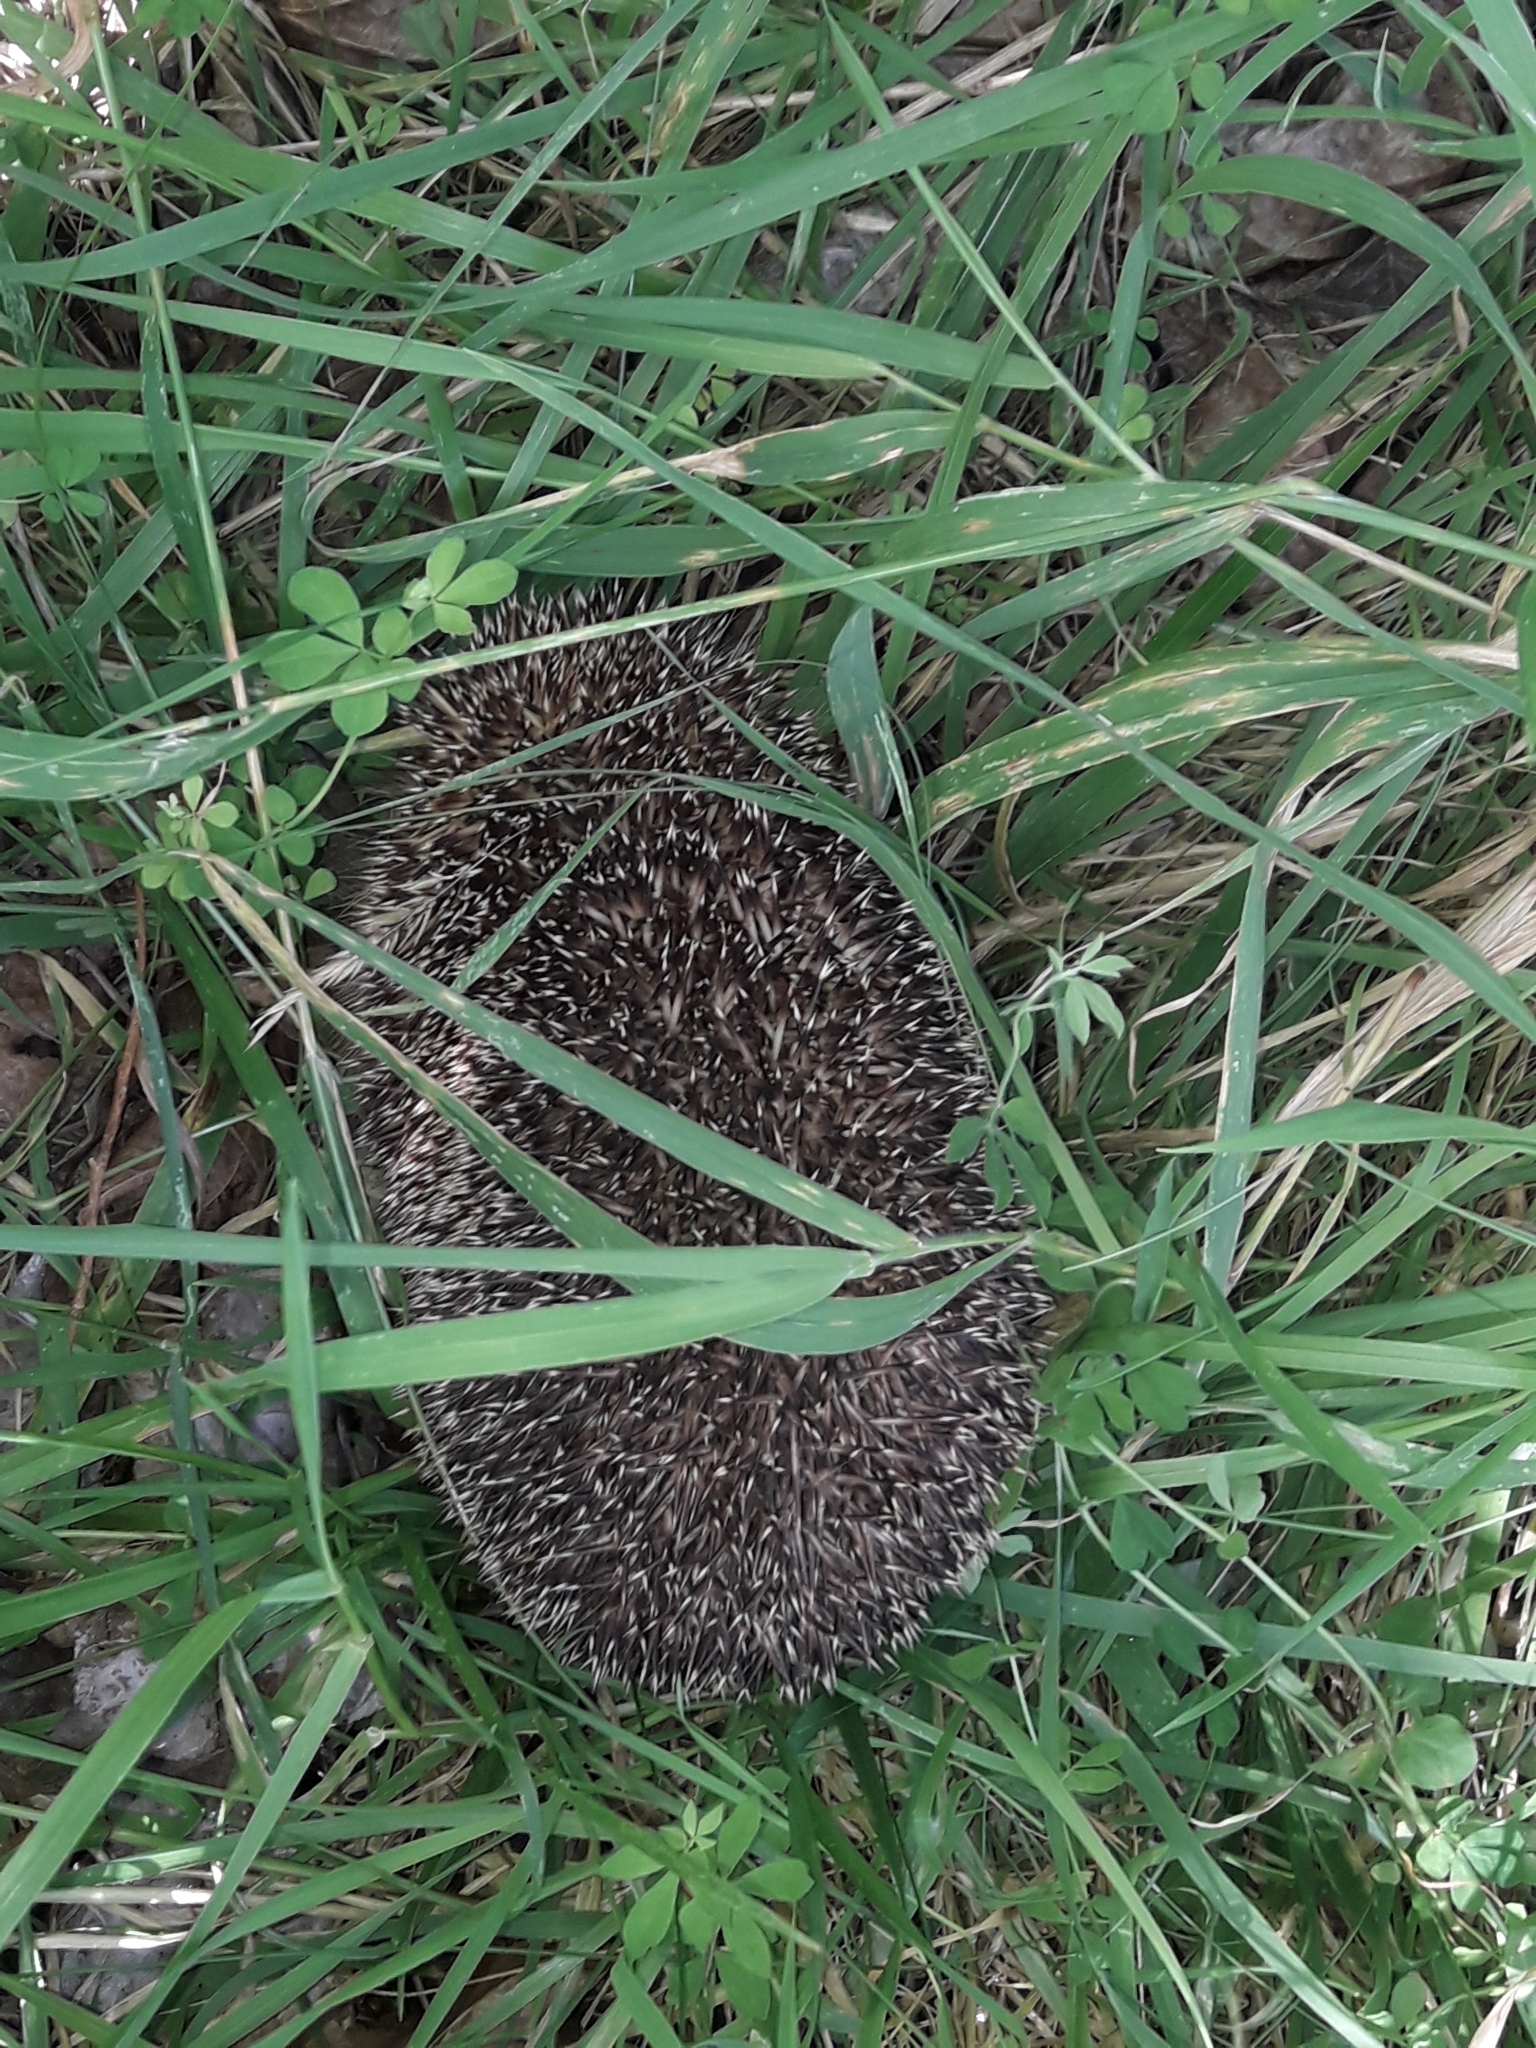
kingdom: Animalia
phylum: Chordata
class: Mammalia
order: Erinaceomorpha
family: Erinaceidae
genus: Erinaceus
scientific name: Erinaceus europaeus
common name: West european hedgehog
